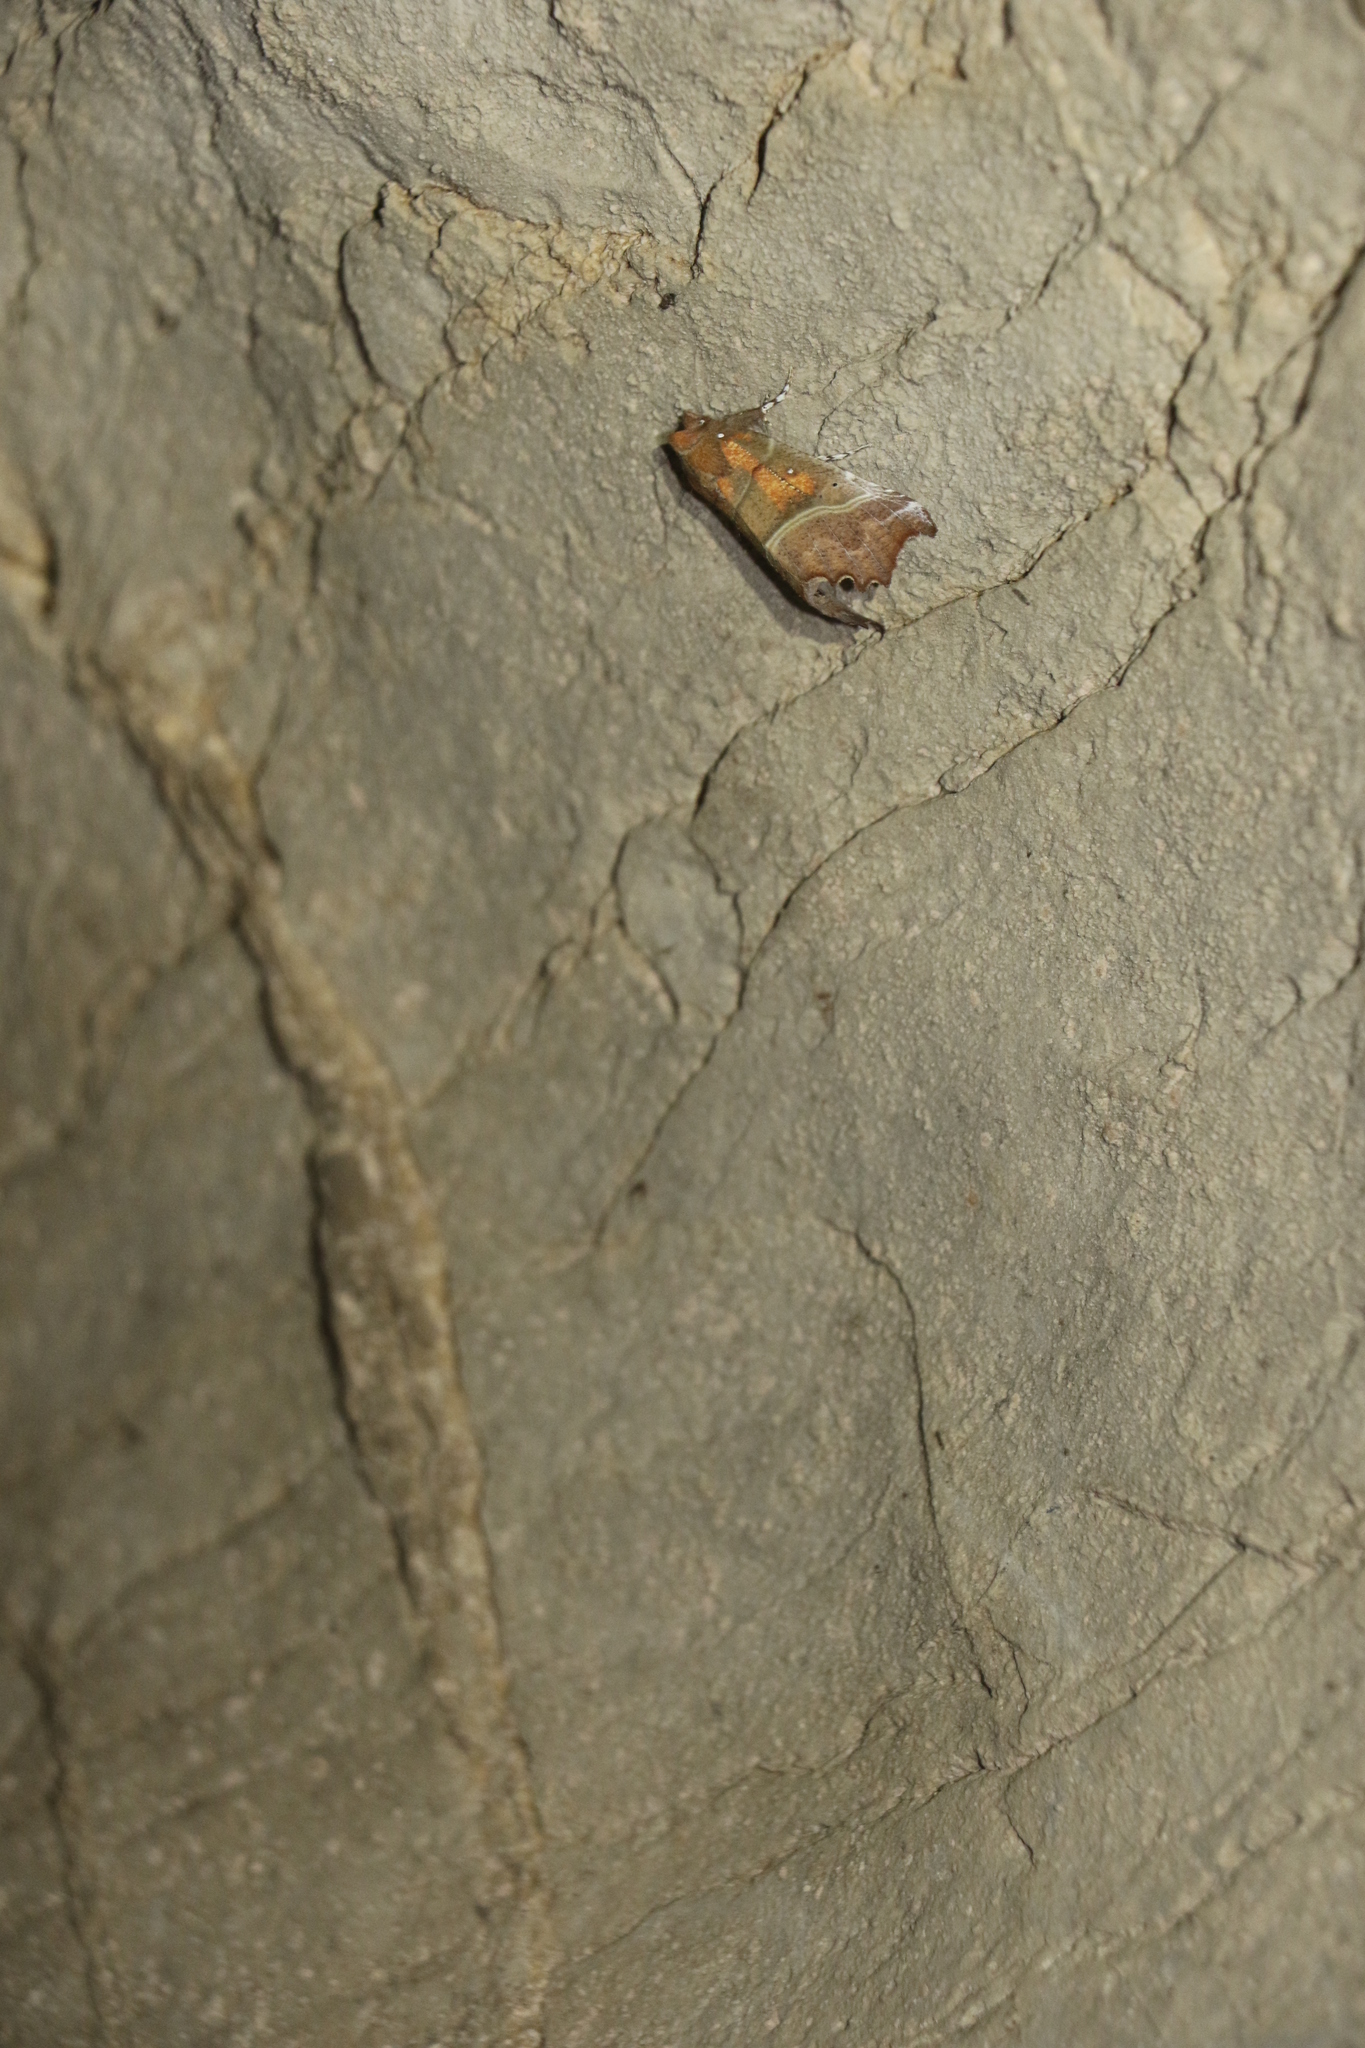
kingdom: Animalia
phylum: Arthropoda
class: Insecta
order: Lepidoptera
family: Erebidae
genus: Scoliopteryx
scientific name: Scoliopteryx libatrix
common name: Herald
